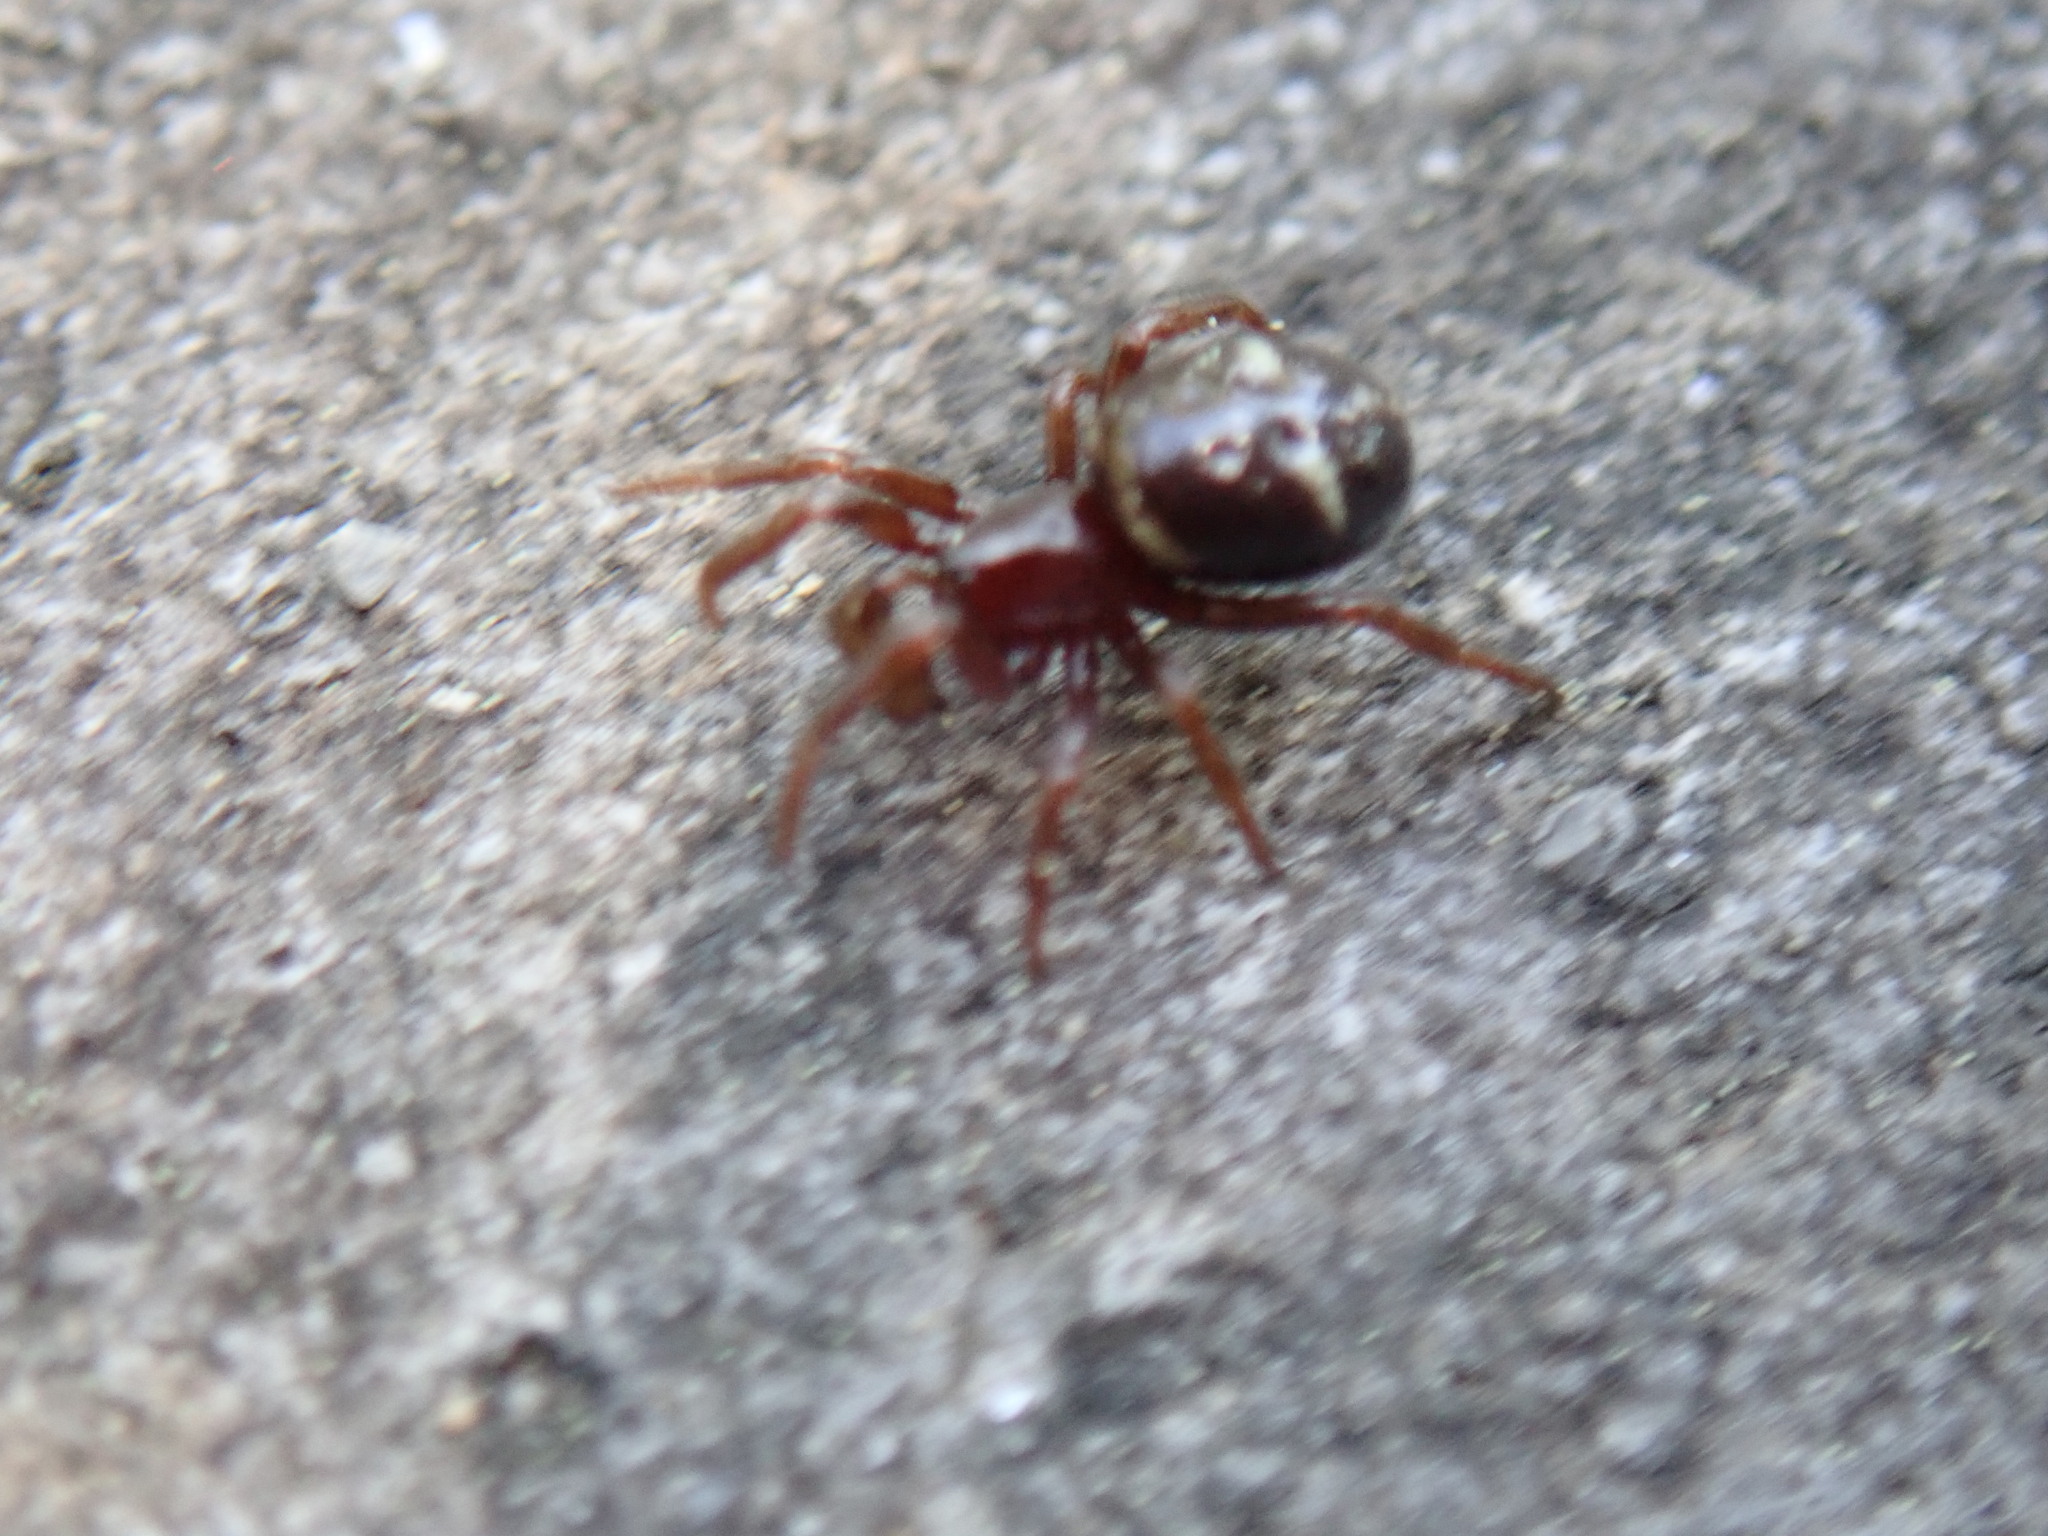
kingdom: Animalia
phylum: Arthropoda
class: Arachnida
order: Araneae
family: Theridiidae
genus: Asagena
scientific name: Asagena phalerata
